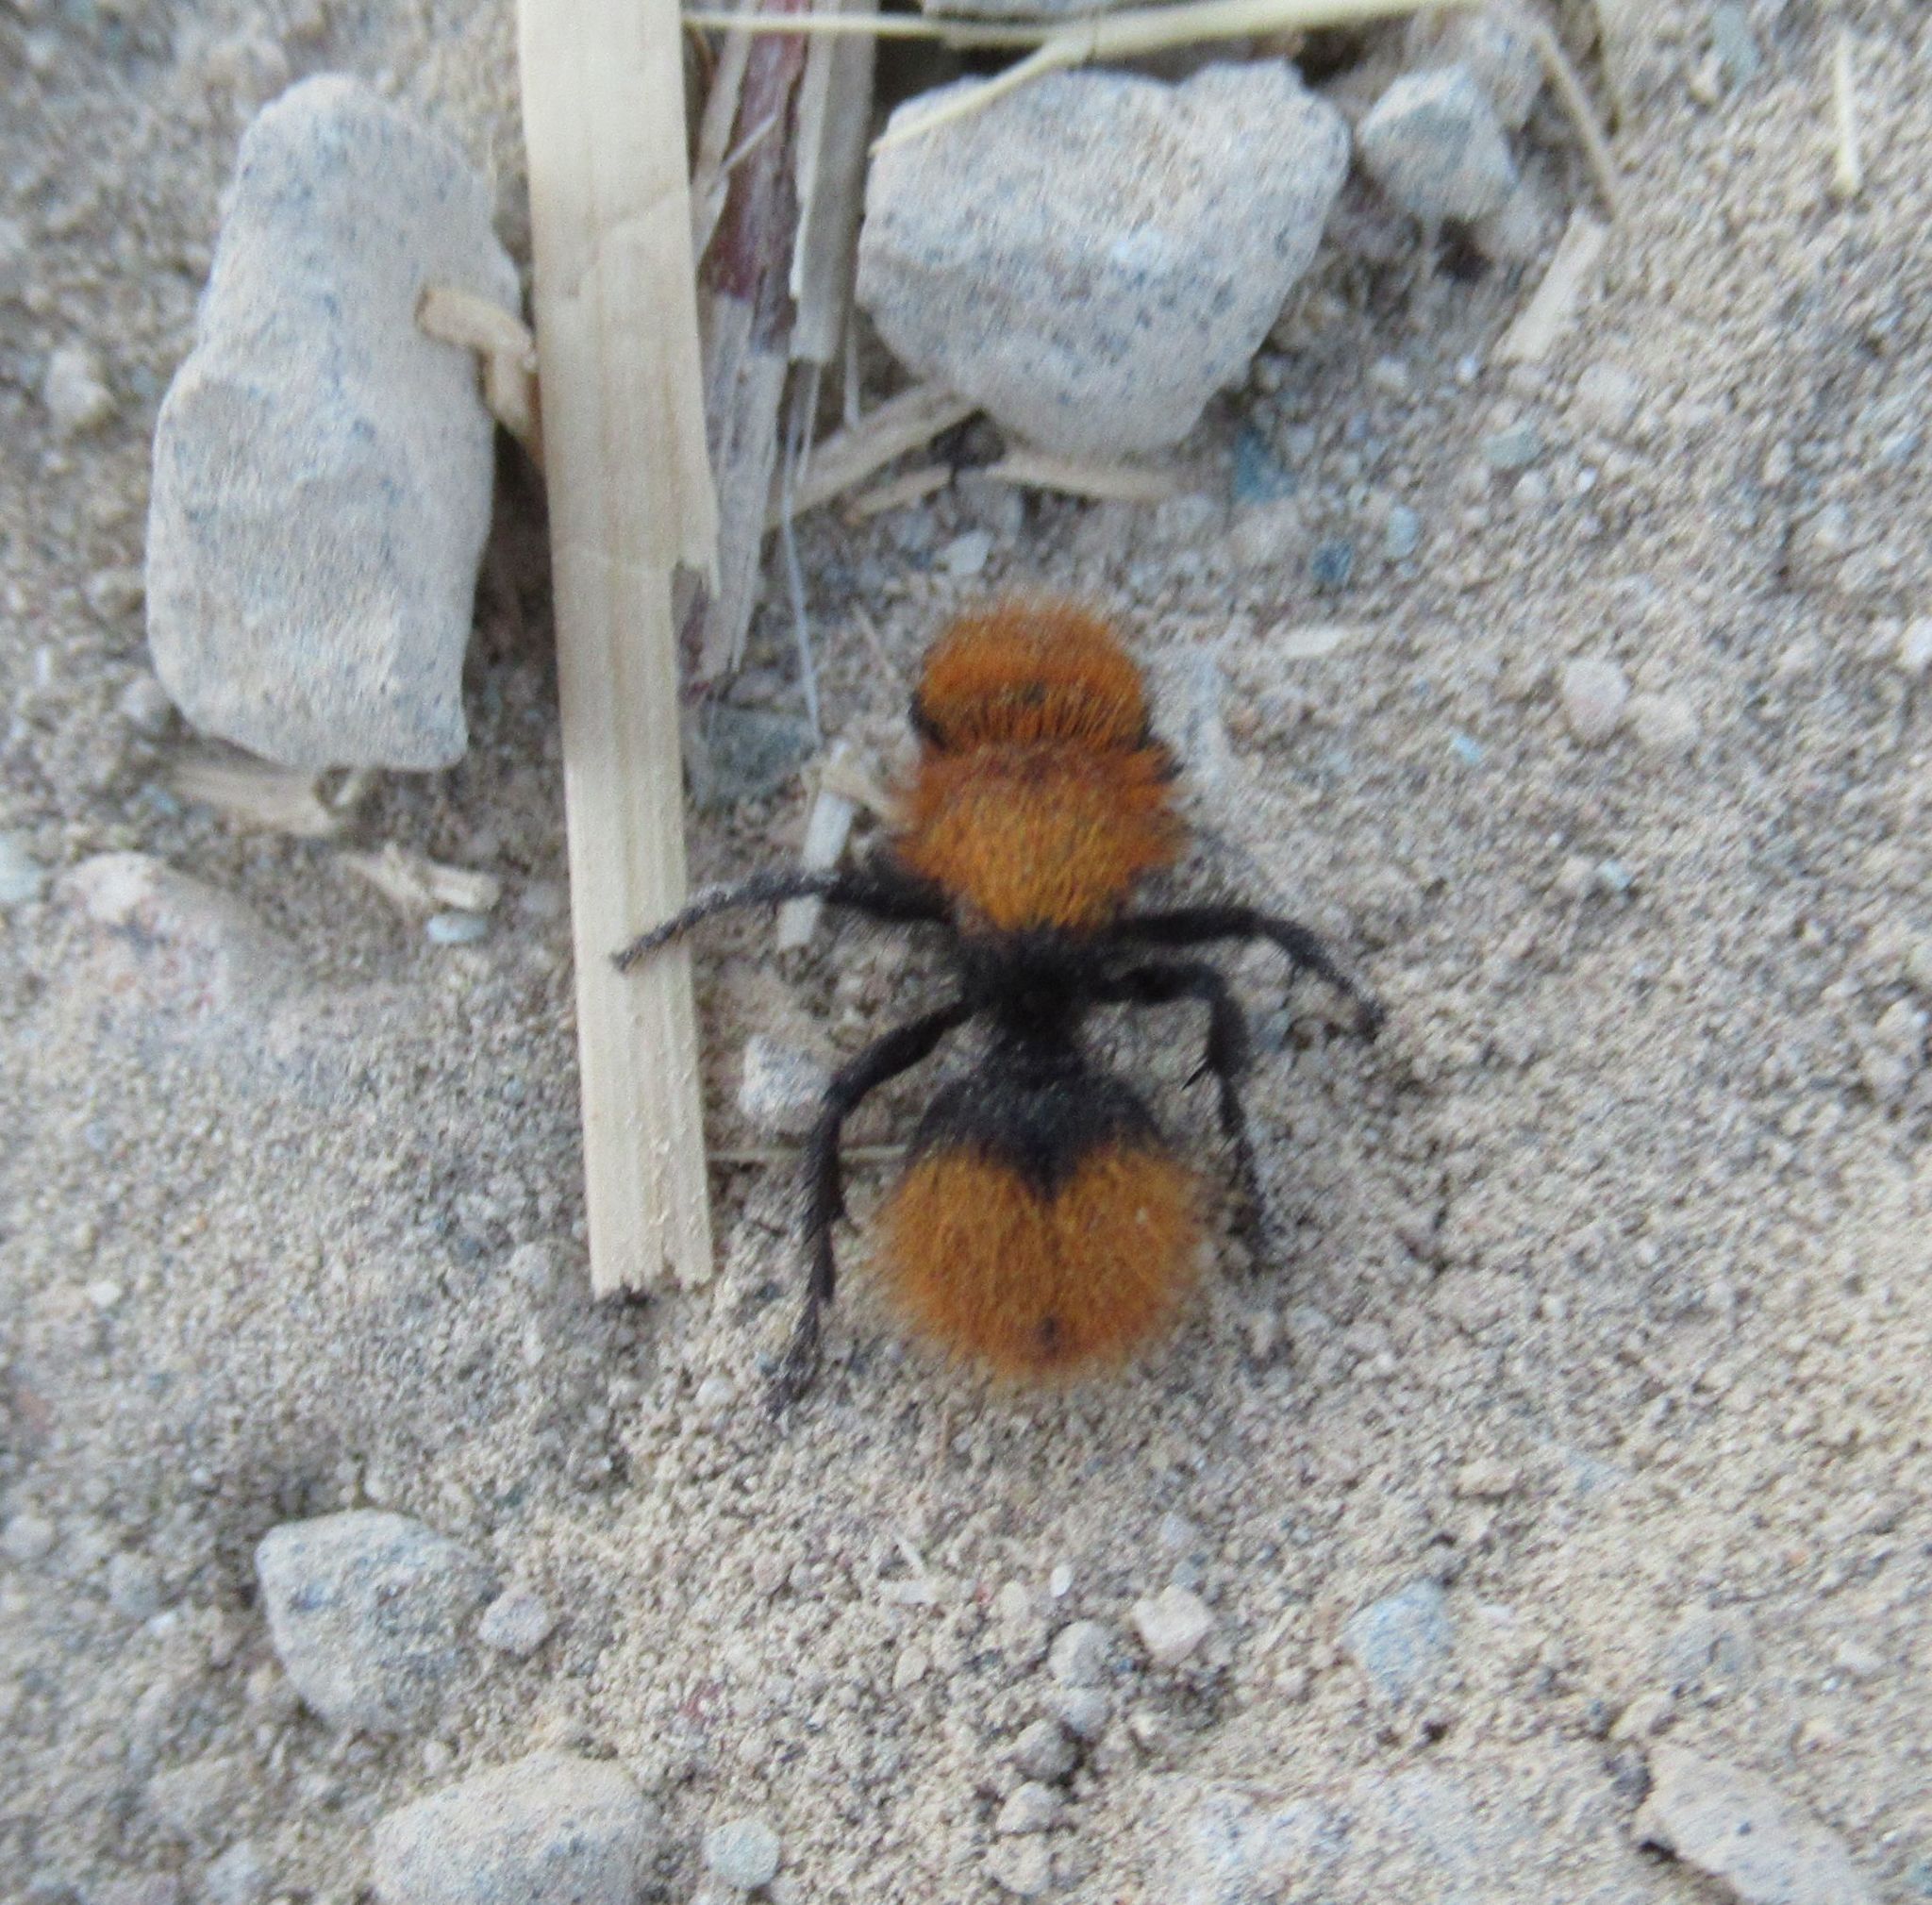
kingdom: Animalia
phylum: Arthropoda
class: Insecta
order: Hymenoptera
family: Mutillidae
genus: Dasymutilla
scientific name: Dasymutilla
